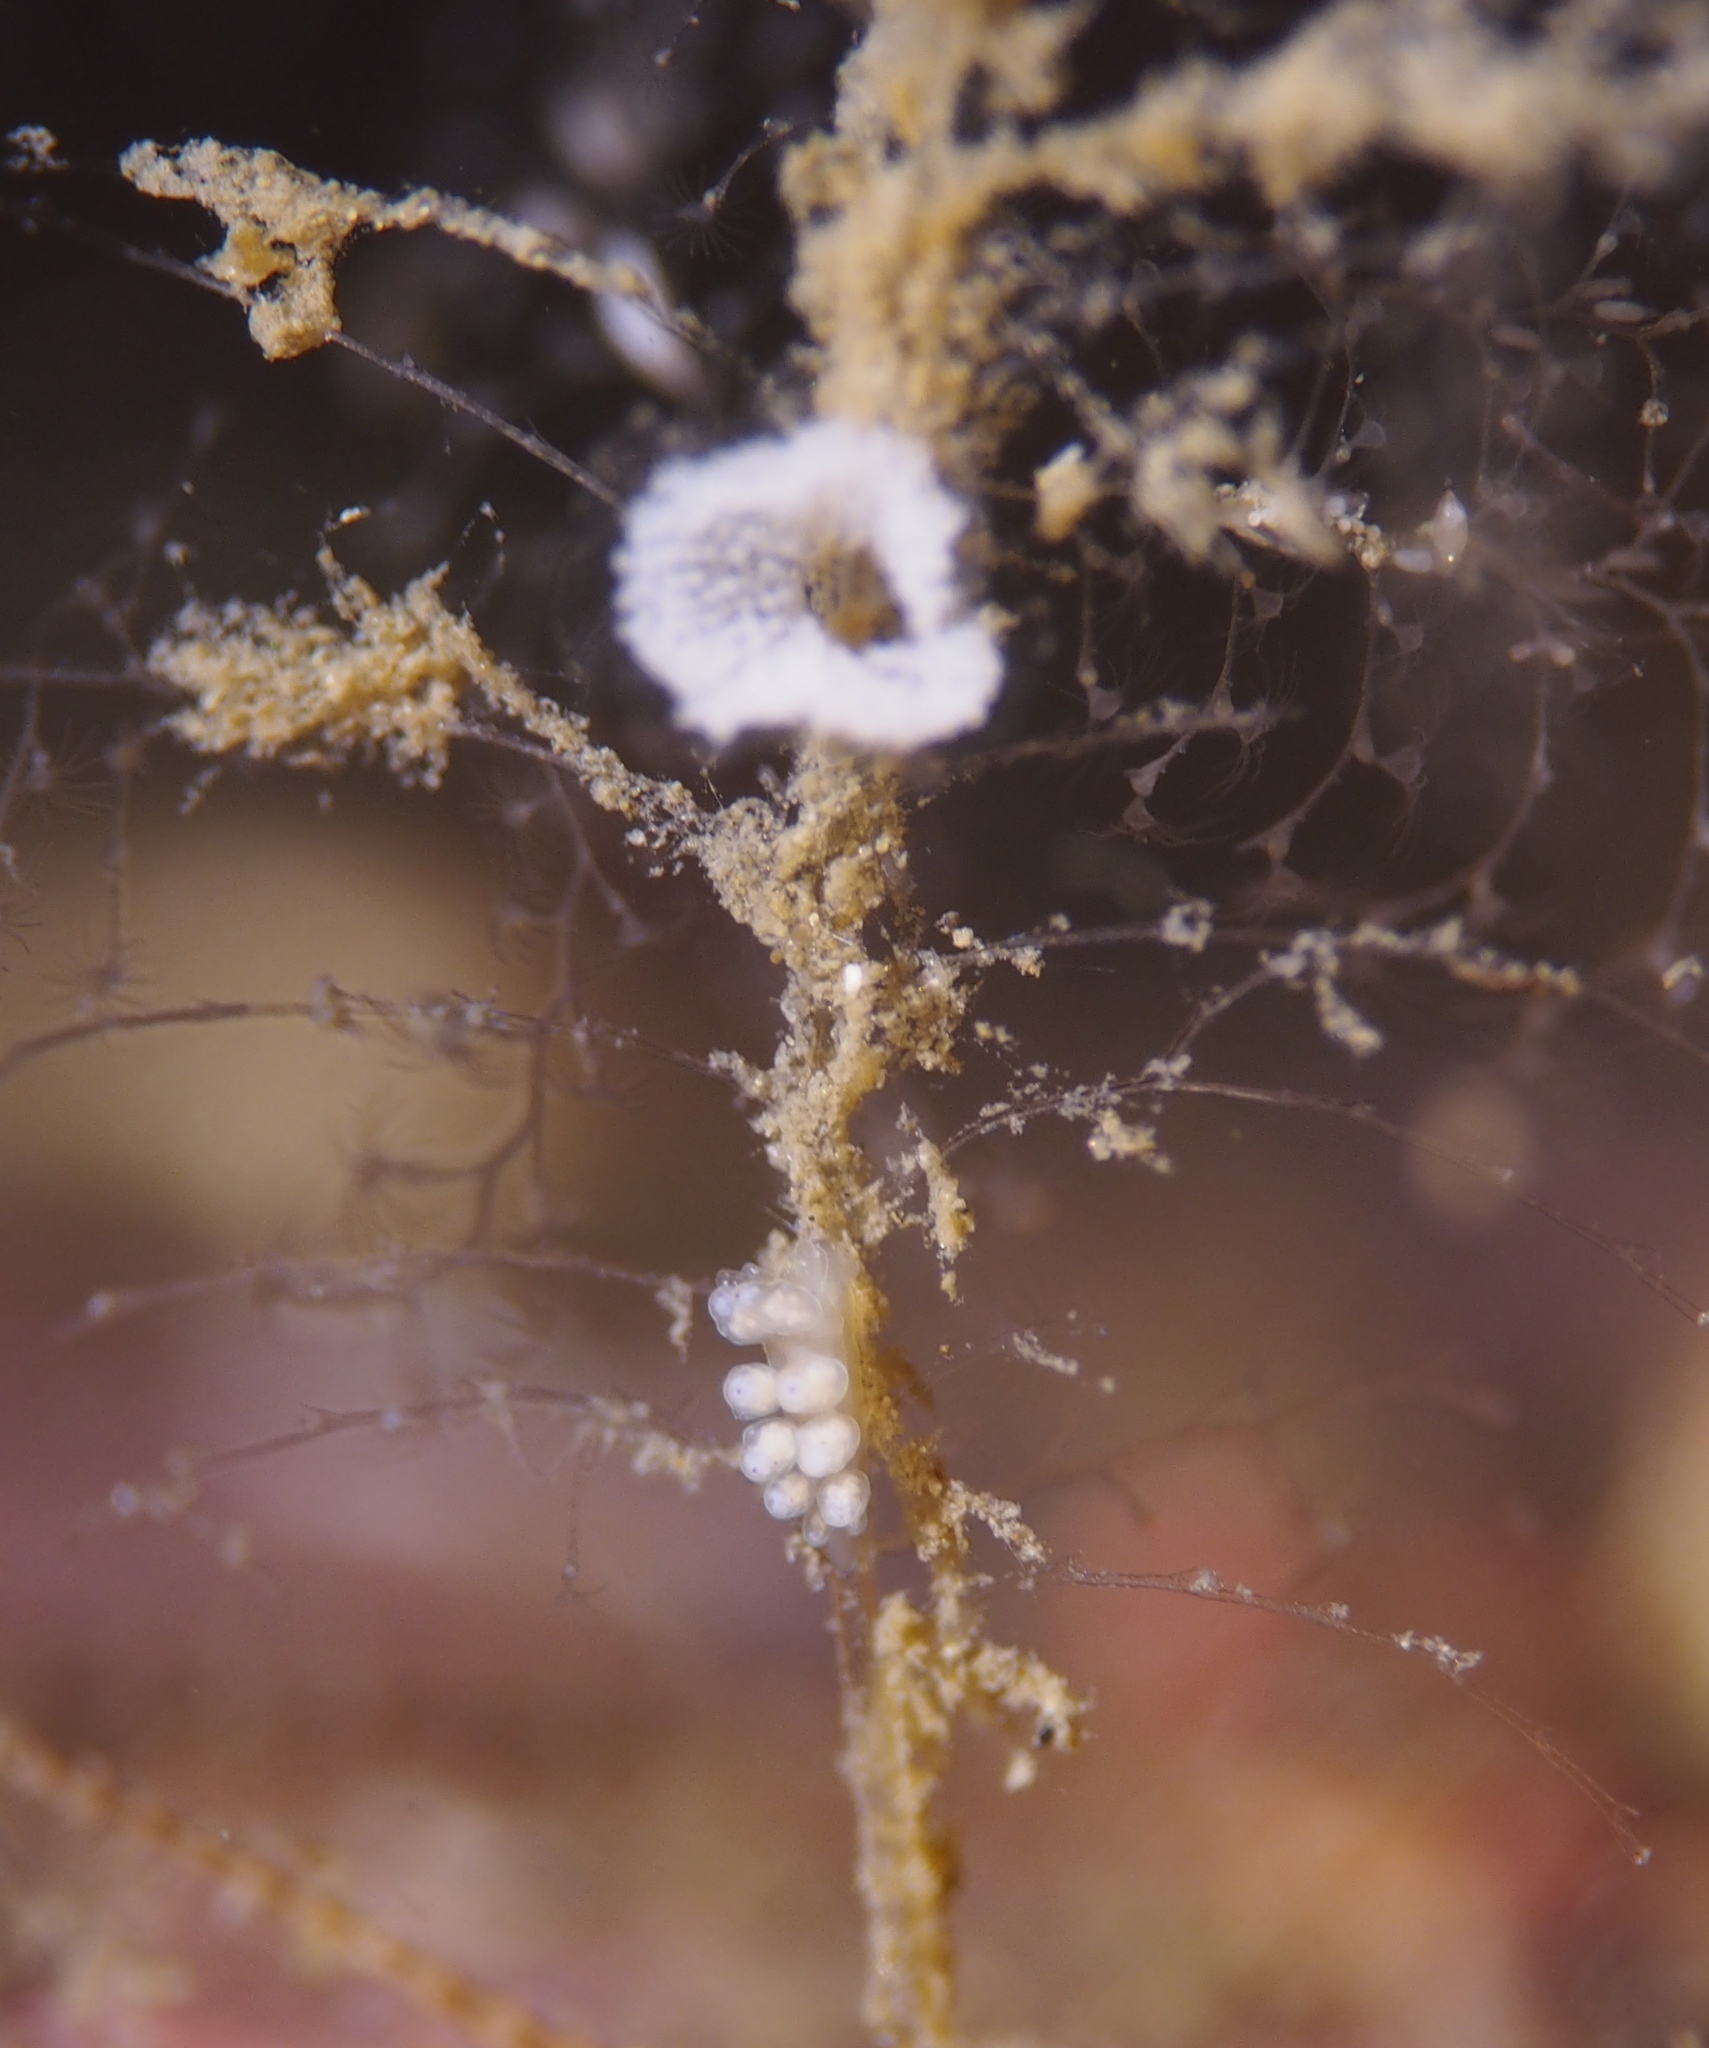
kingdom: Animalia
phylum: Mollusca
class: Gastropoda
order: Nudibranchia
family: Dotidae
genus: Doto
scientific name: Doto dunnei
